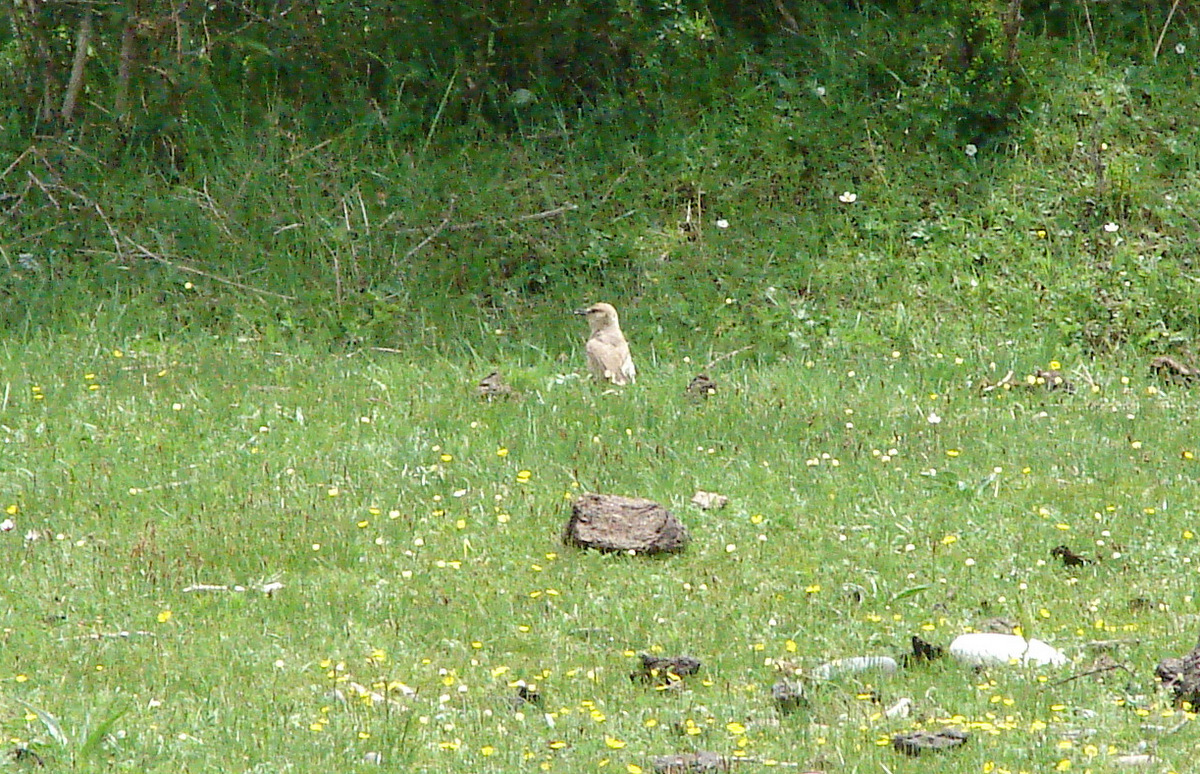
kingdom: Animalia
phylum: Chordata
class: Aves
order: Passeriformes
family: Paridae
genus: Pseudopodoces
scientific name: Pseudopodoces humilis
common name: Ground tit
